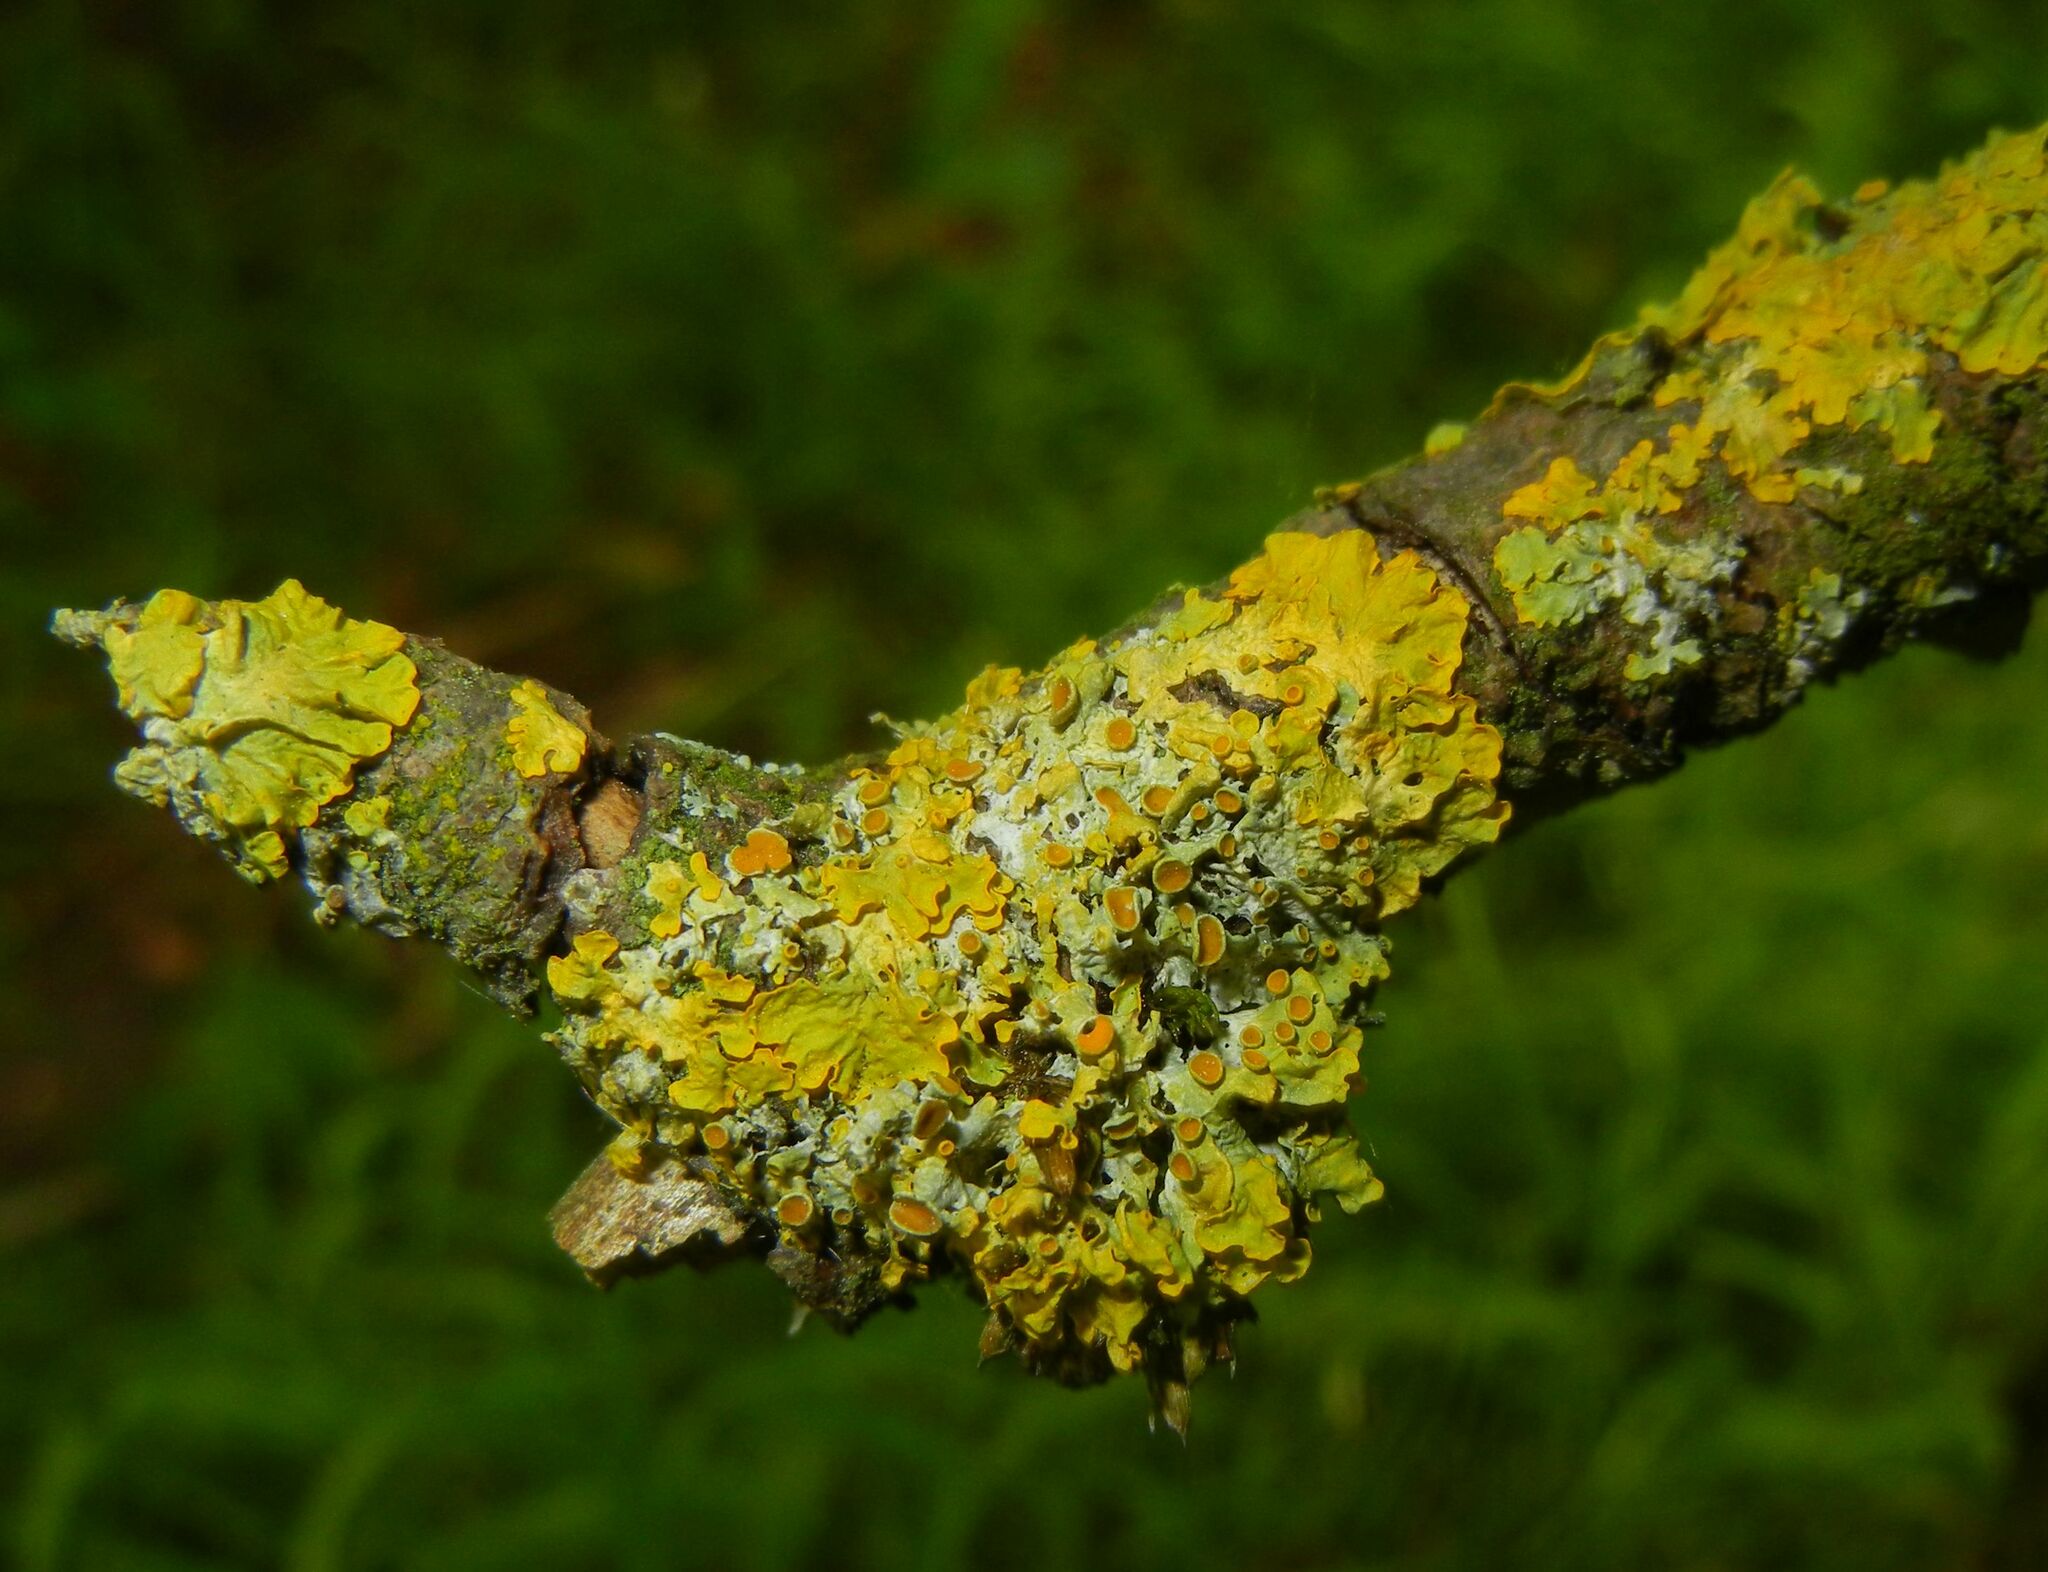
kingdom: Fungi
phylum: Ascomycota
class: Lecanoromycetes
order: Teloschistales
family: Teloschistaceae
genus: Xanthoria
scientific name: Xanthoria parietina
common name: Common orange lichen
